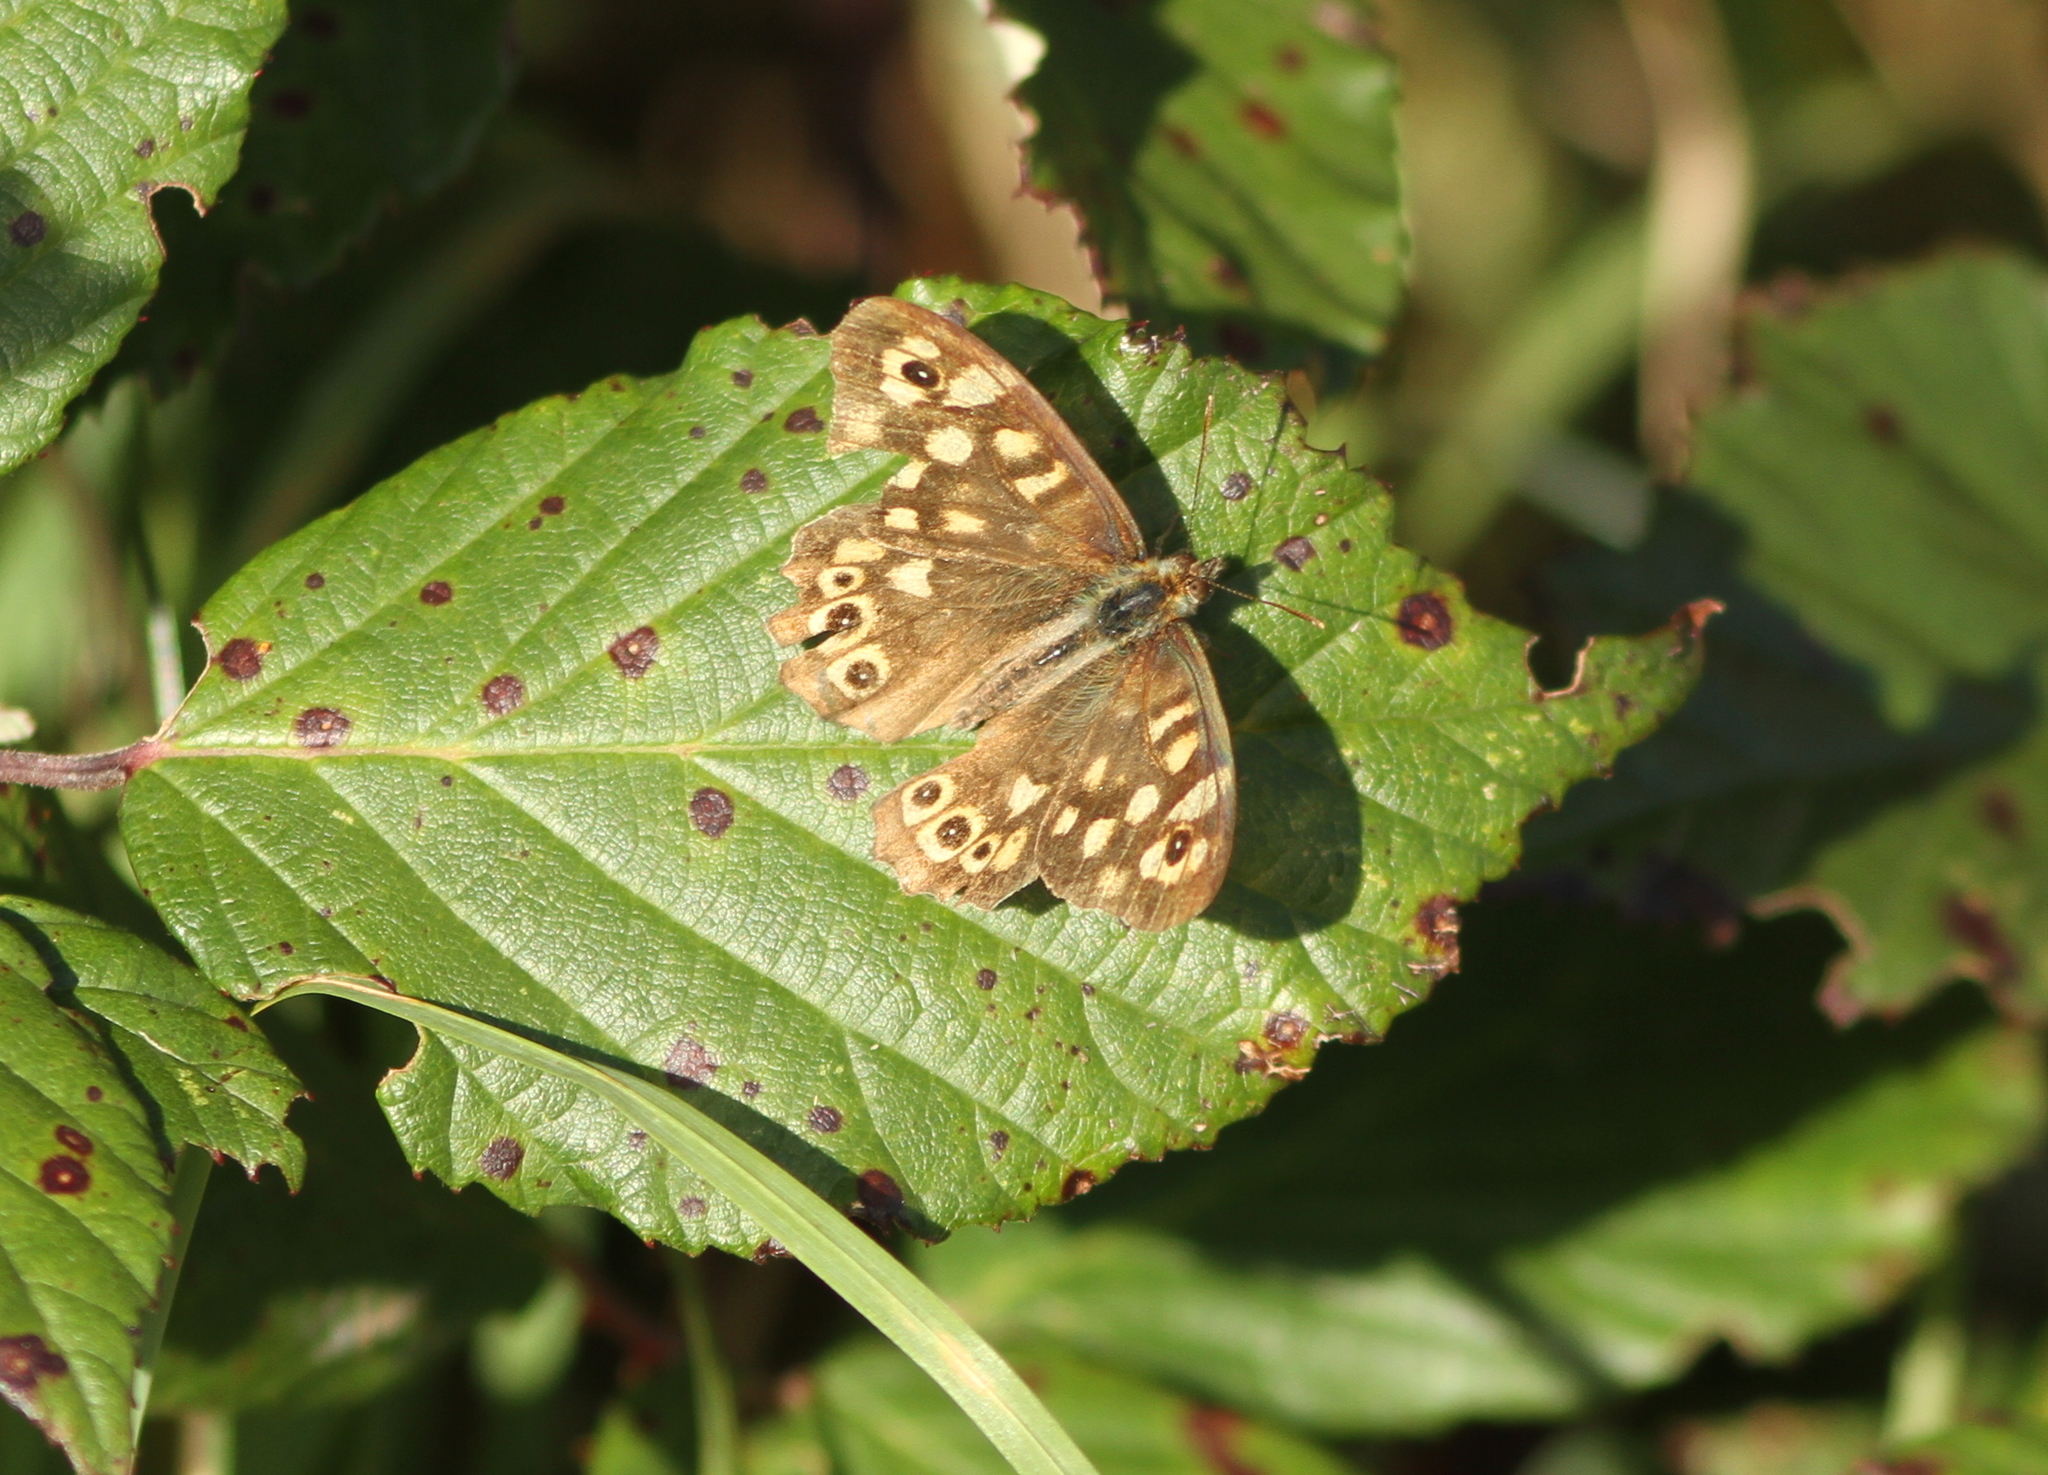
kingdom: Animalia
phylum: Arthropoda
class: Insecta
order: Lepidoptera
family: Nymphalidae
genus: Pararge
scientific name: Pararge aegeria
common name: Speckled wood
